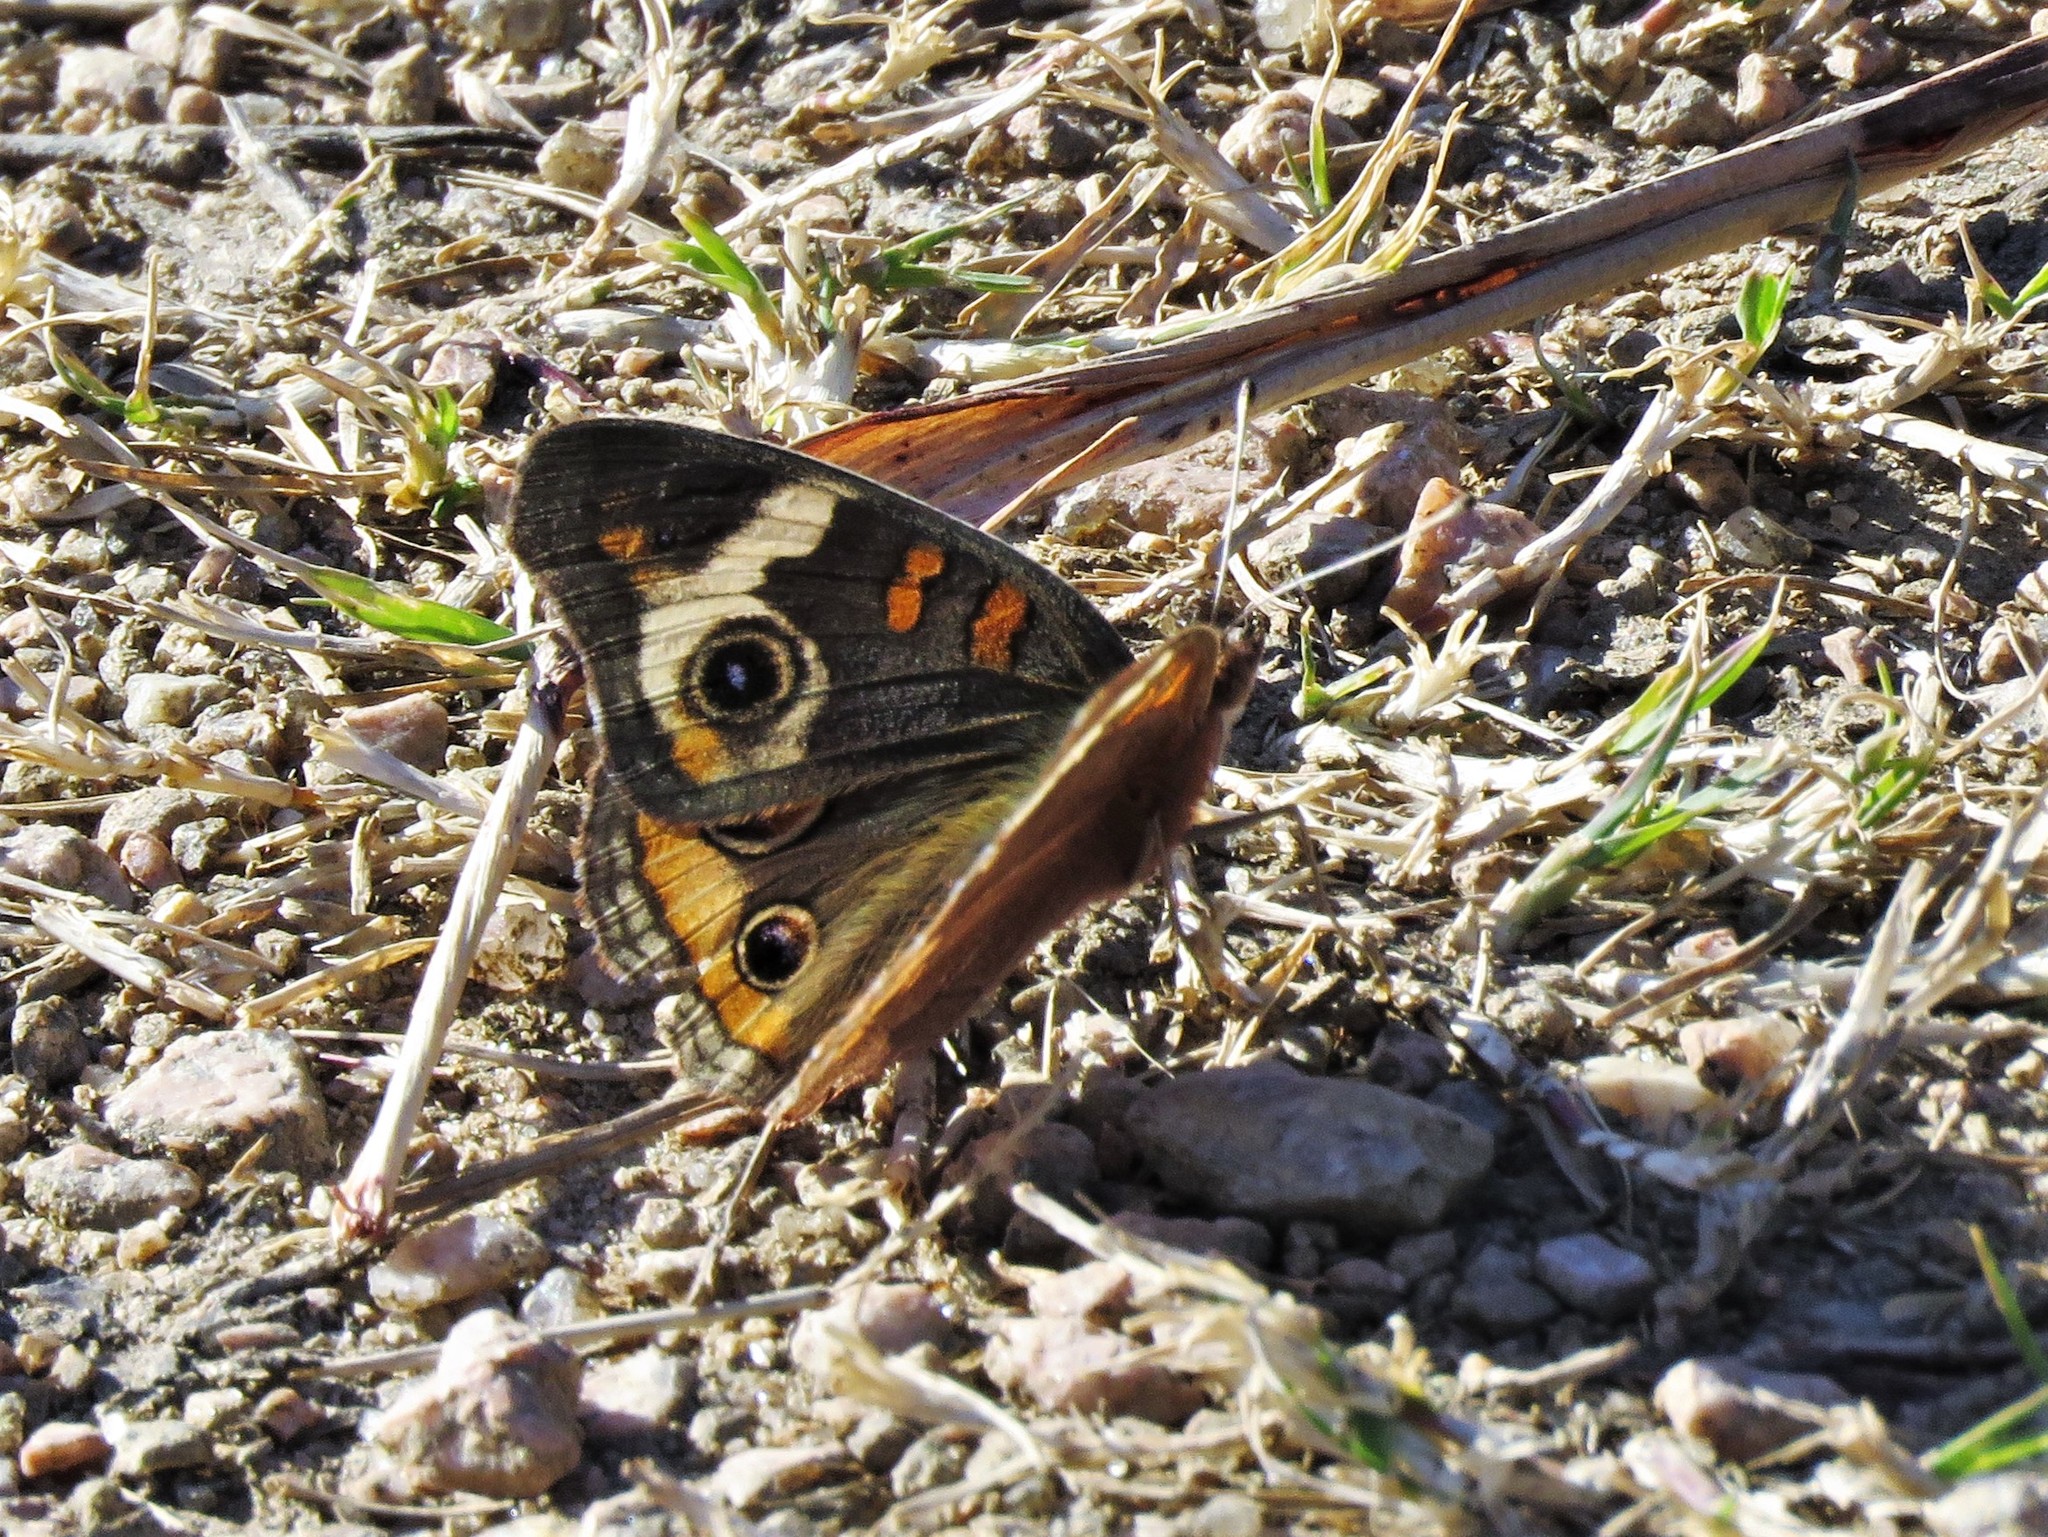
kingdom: Animalia
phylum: Arthropoda
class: Insecta
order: Lepidoptera
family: Nymphalidae
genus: Junonia
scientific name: Junonia coenia
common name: Common buckeye
